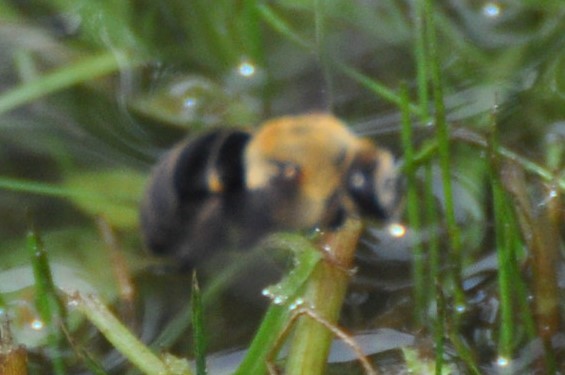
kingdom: Animalia
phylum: Arthropoda
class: Insecta
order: Hymenoptera
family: Apidae
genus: Ptilothrix
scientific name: Ptilothrix bombiformis
